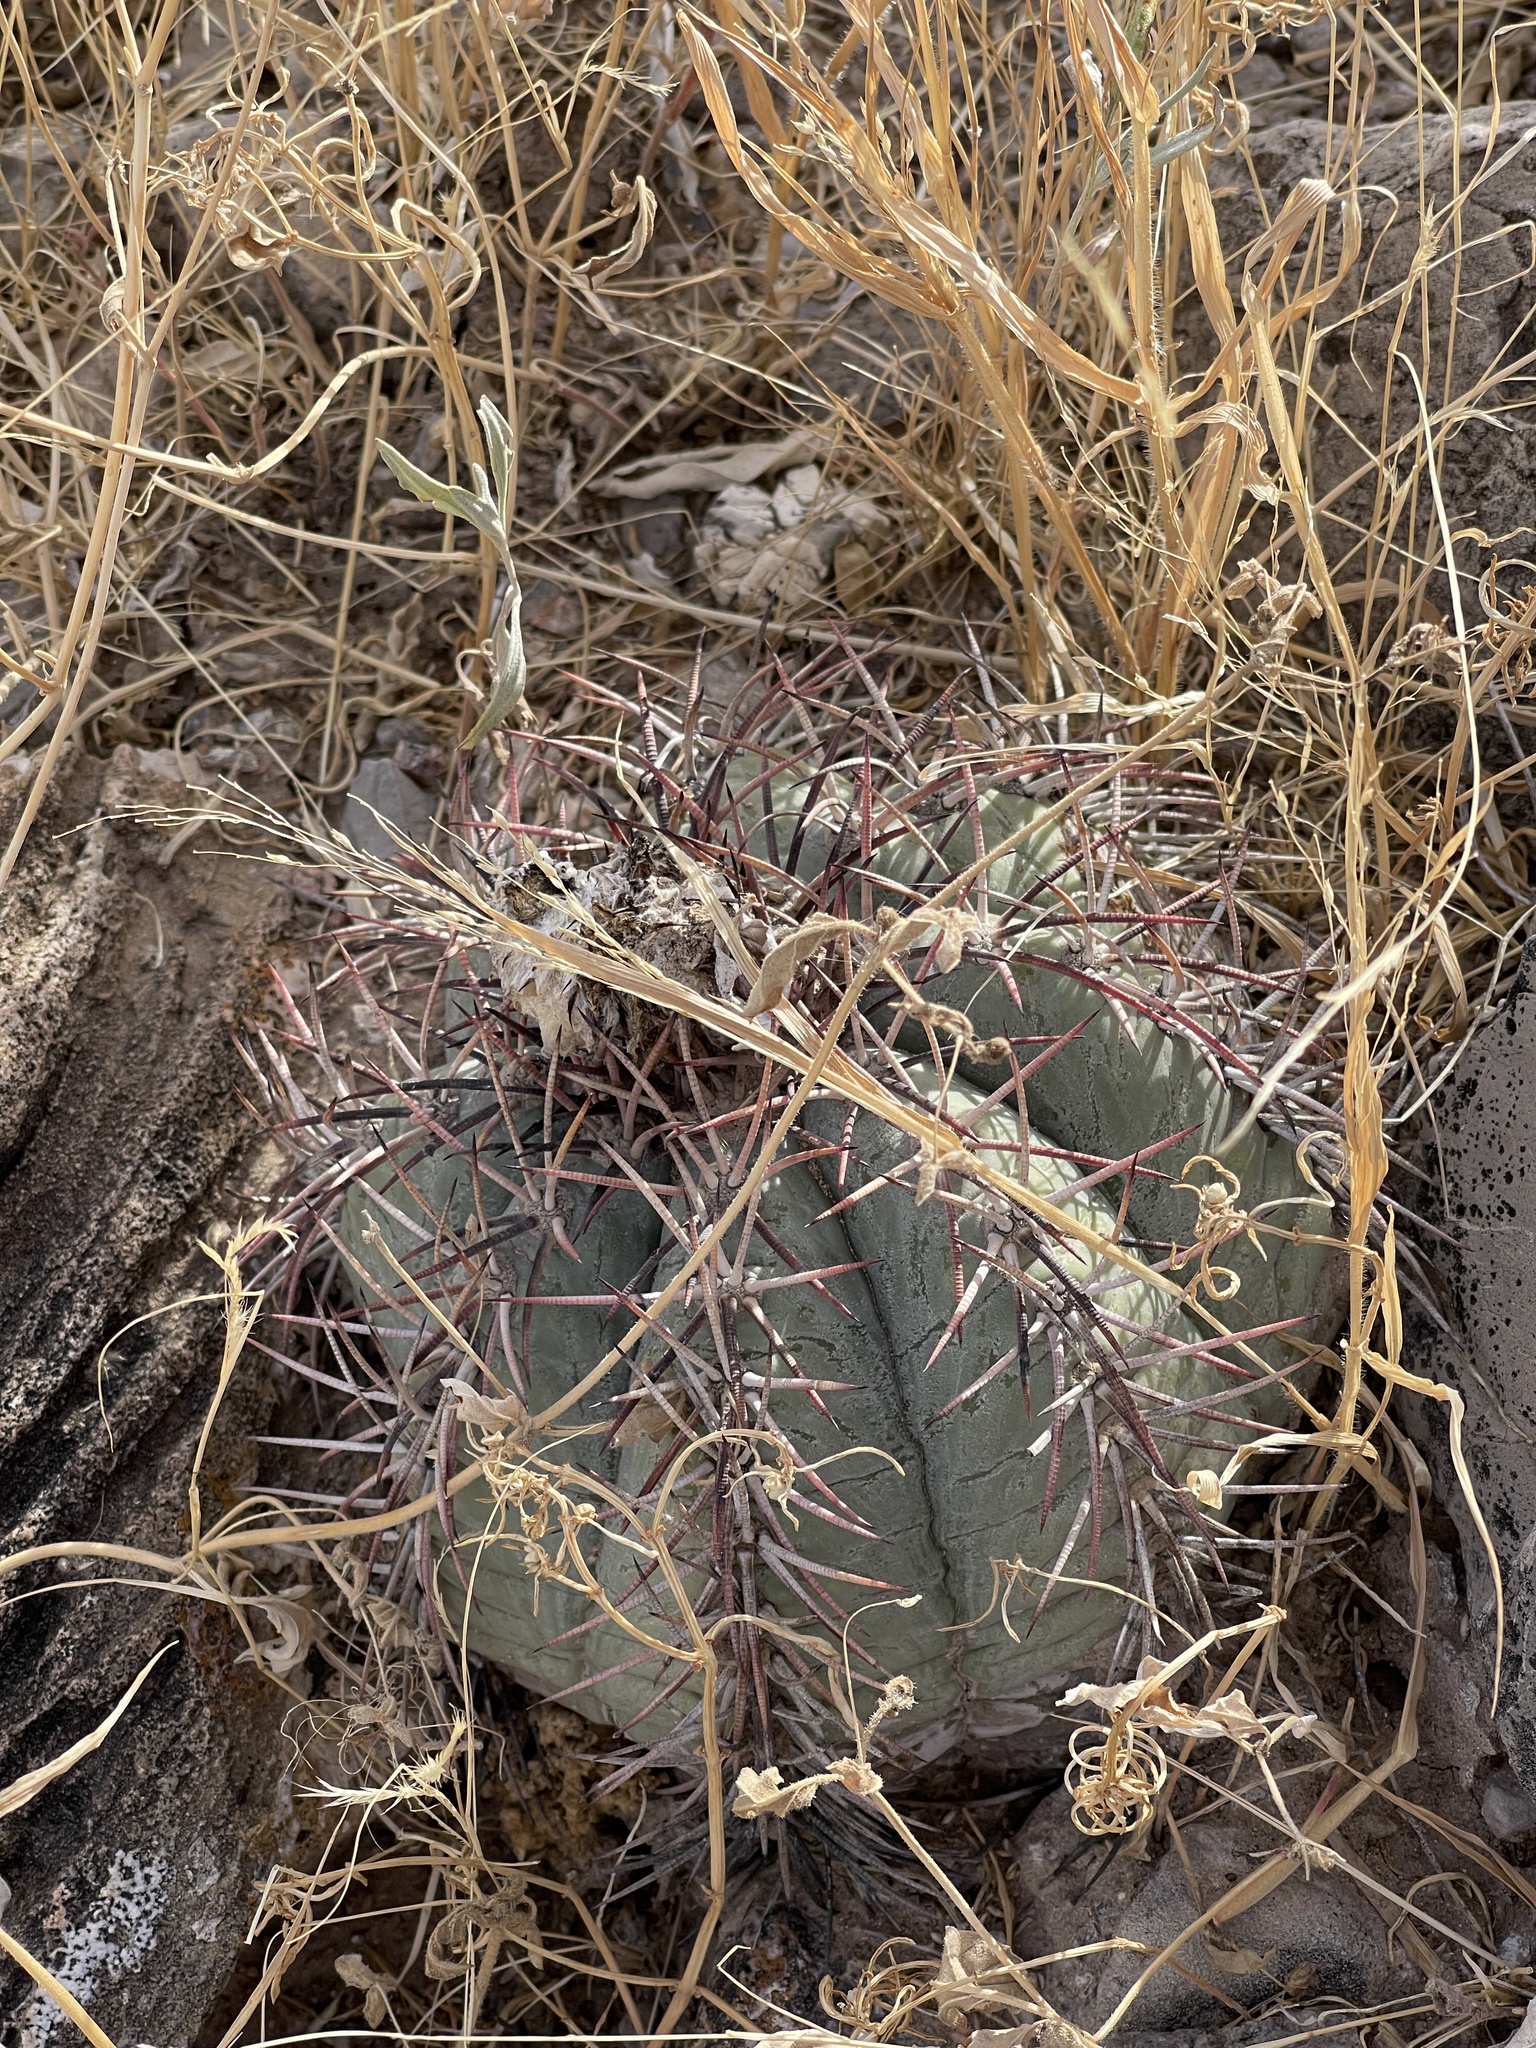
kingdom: Plantae
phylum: Tracheophyta
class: Magnoliopsida
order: Caryophyllales
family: Cactaceae
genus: Echinocactus
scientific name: Echinocactus horizonthalonius
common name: Devilshead
